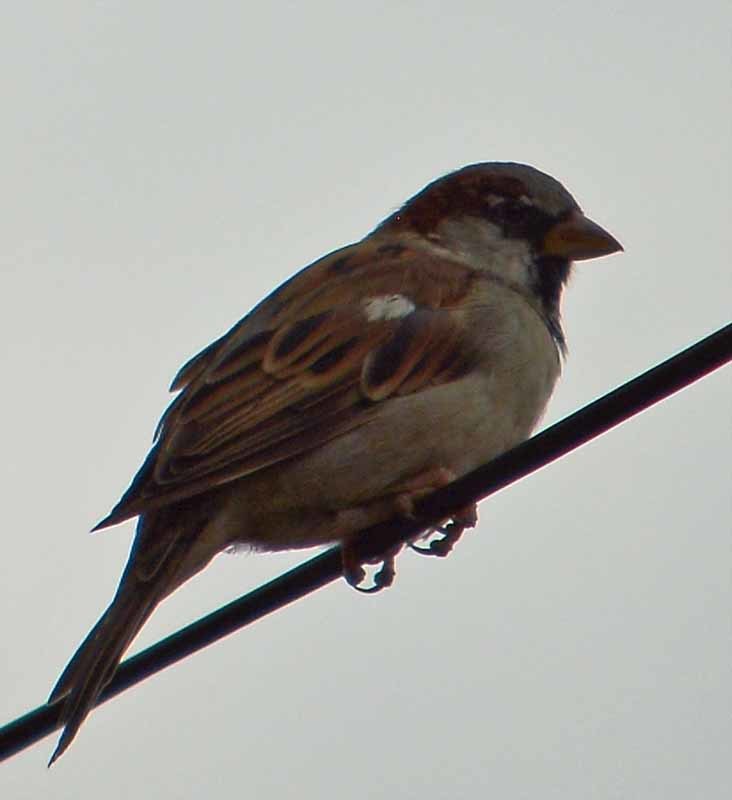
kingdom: Animalia
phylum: Chordata
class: Aves
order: Passeriformes
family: Passeridae
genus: Passer
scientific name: Passer domesticus
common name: House sparrow
